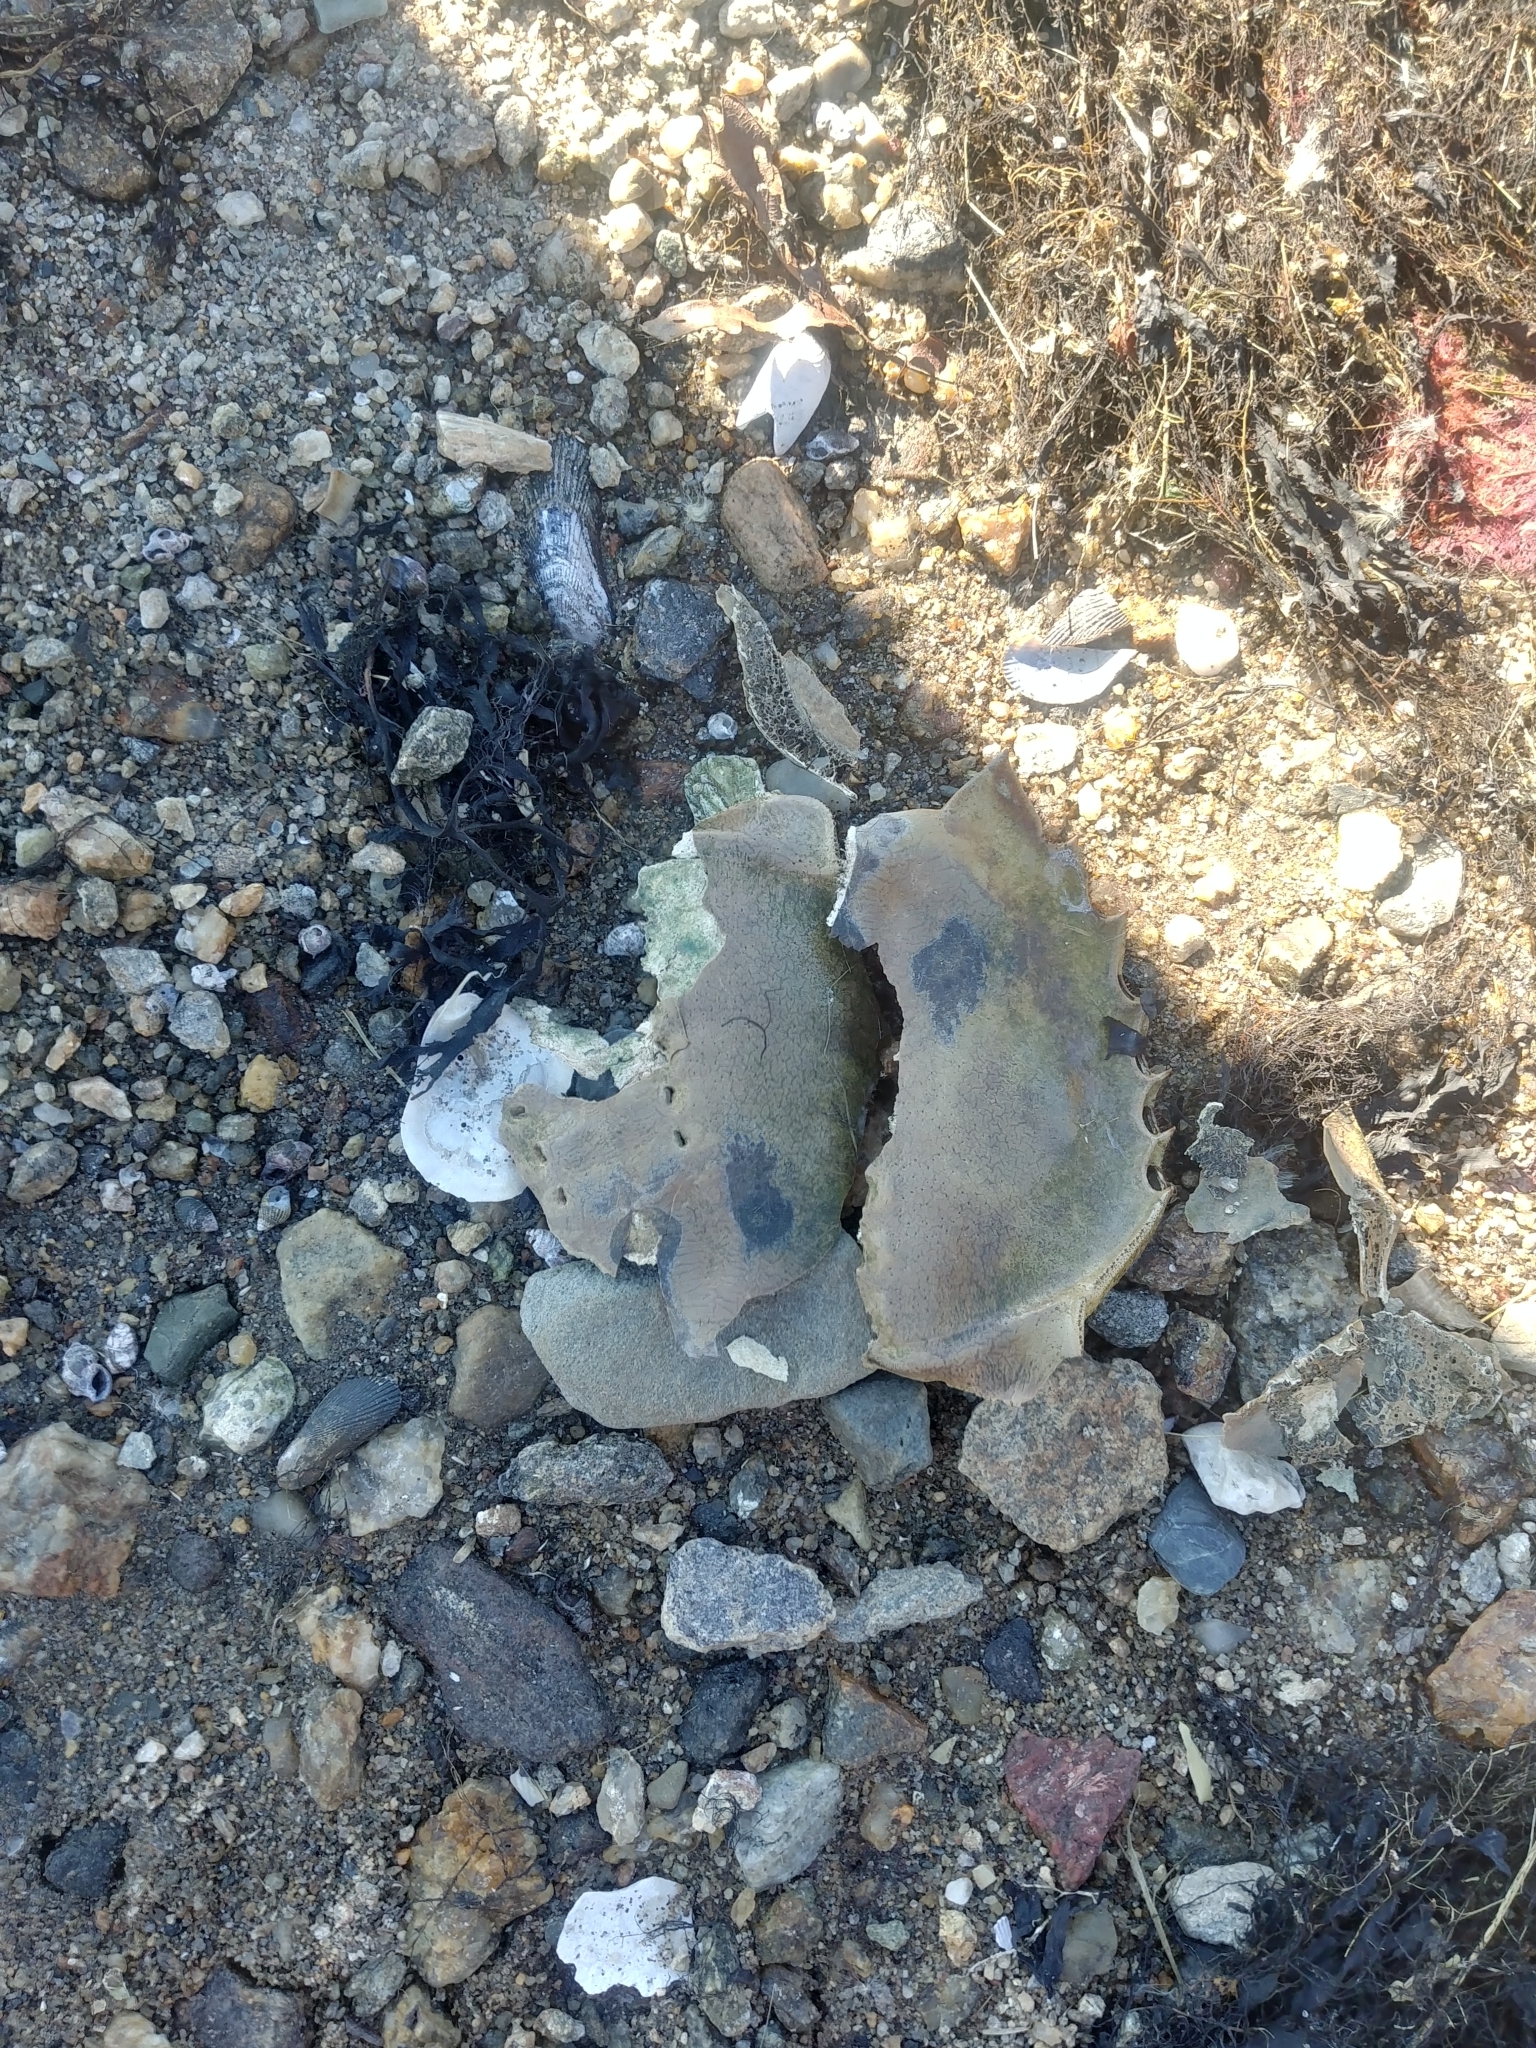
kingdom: Animalia
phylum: Arthropoda
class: Merostomata
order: Xiphosurida
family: Limulidae
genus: Limulus
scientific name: Limulus polyphemus
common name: Horseshoe crab
